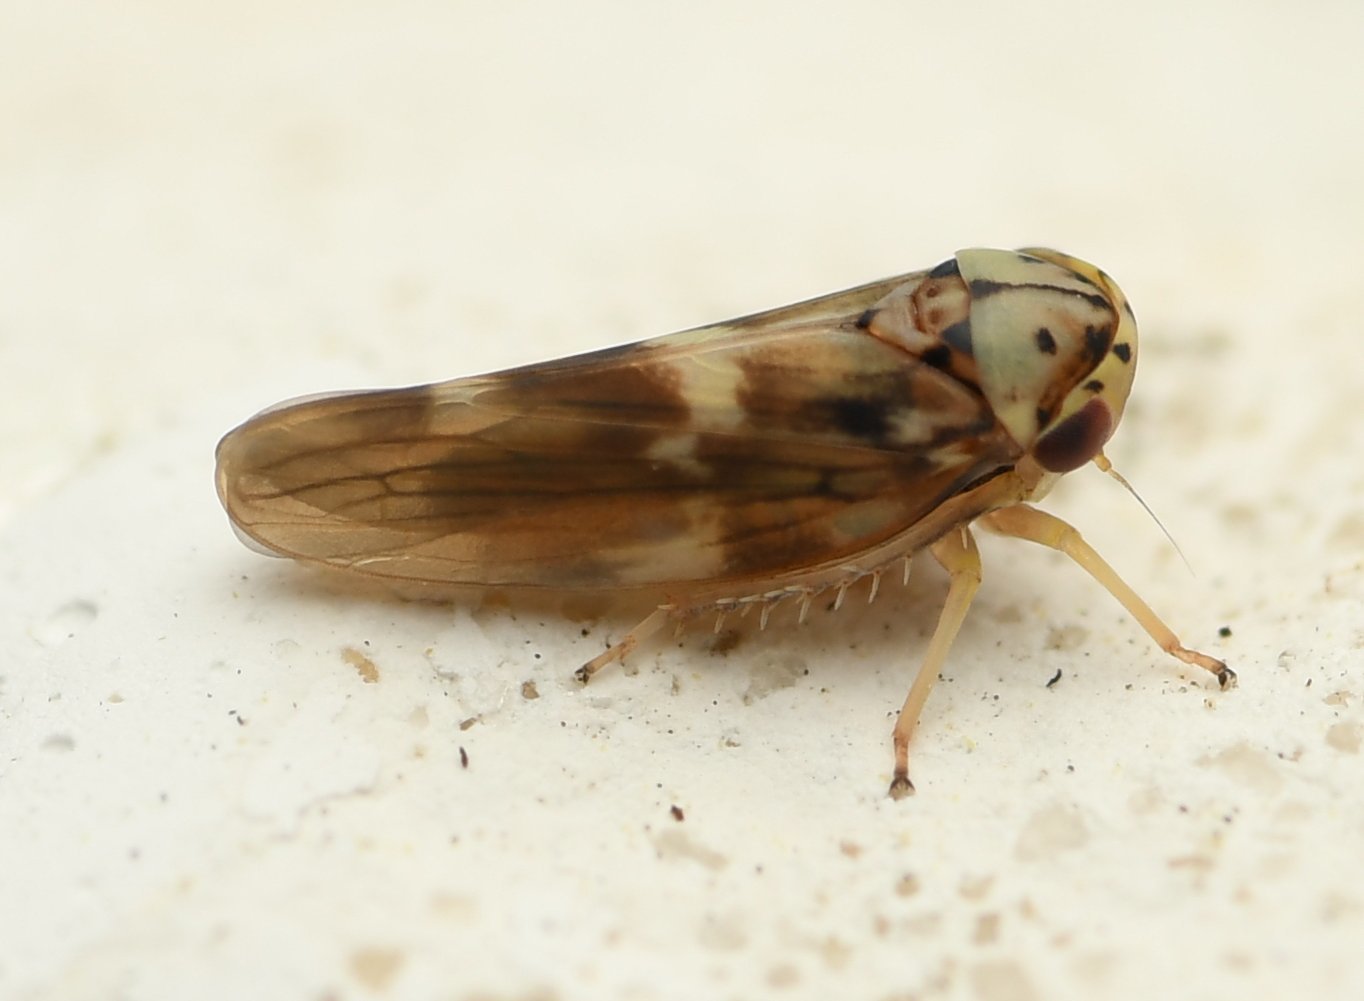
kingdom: Animalia
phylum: Arthropoda
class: Insecta
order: Hemiptera
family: Cicadellidae
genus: Agalliopsis
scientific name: Agalliopsis cervina
